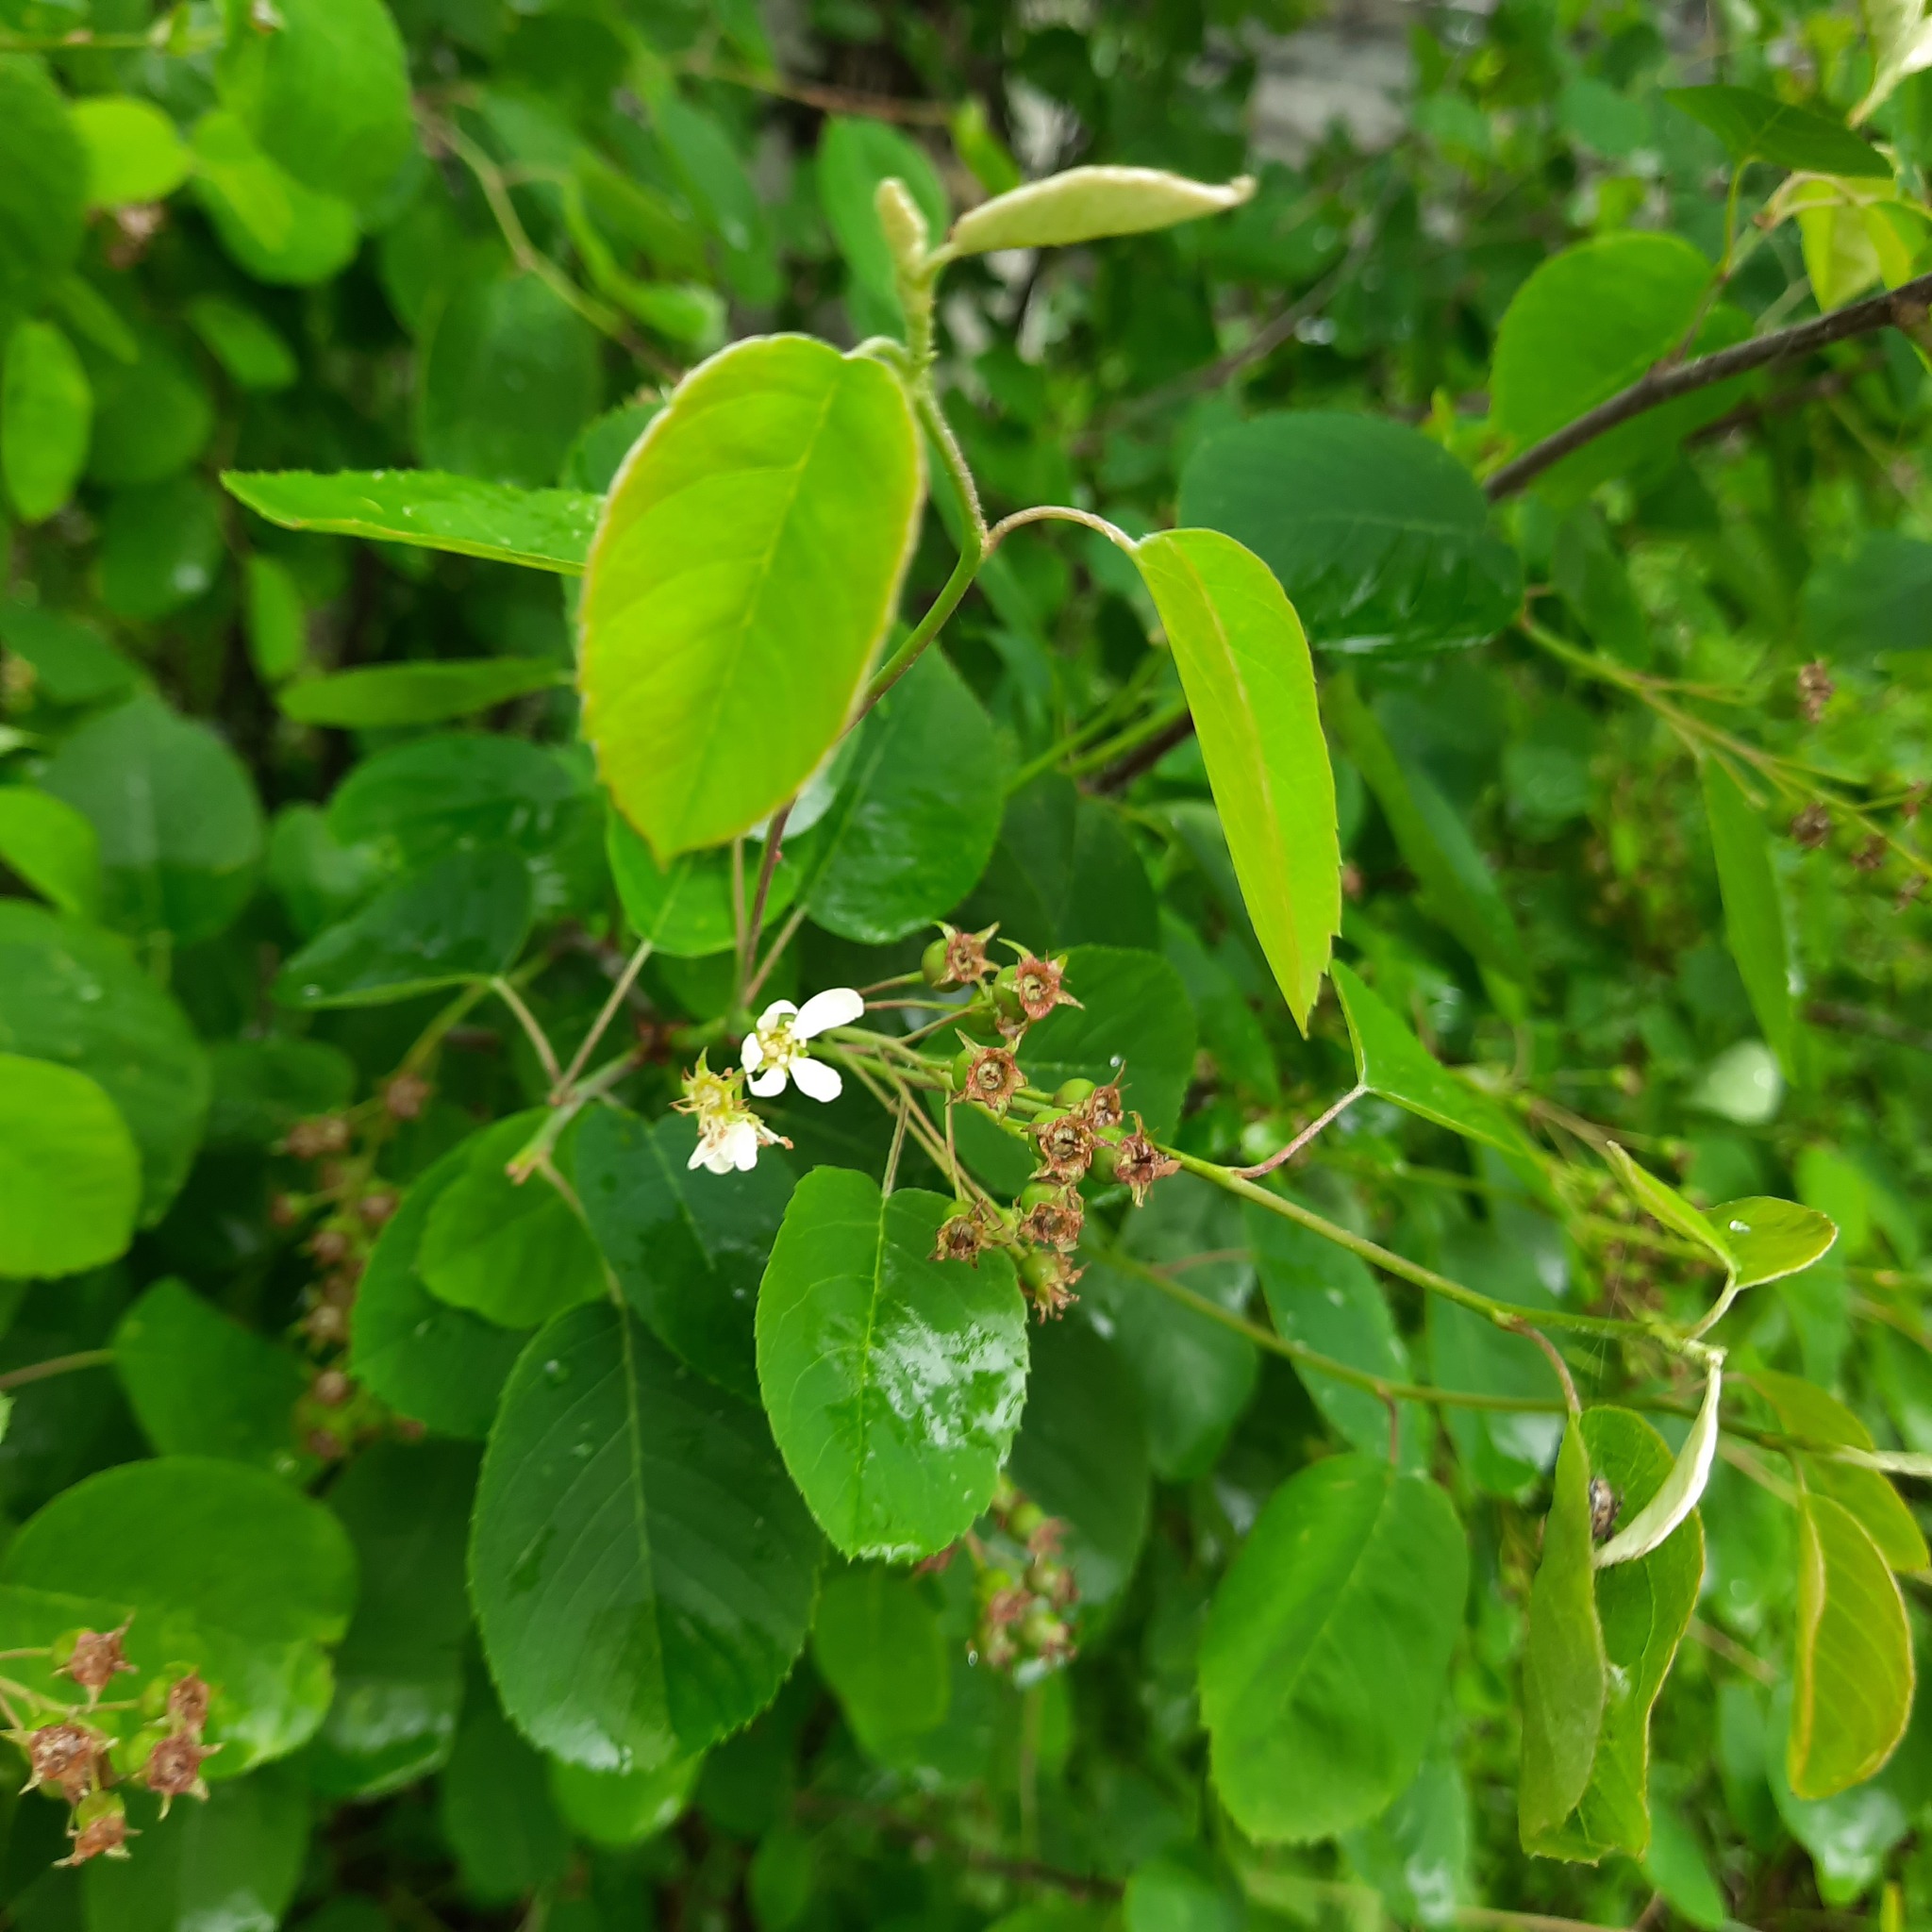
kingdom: Plantae
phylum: Tracheophyta
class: Magnoliopsida
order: Rosales
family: Rosaceae
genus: Amelanchier
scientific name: Amelanchier
